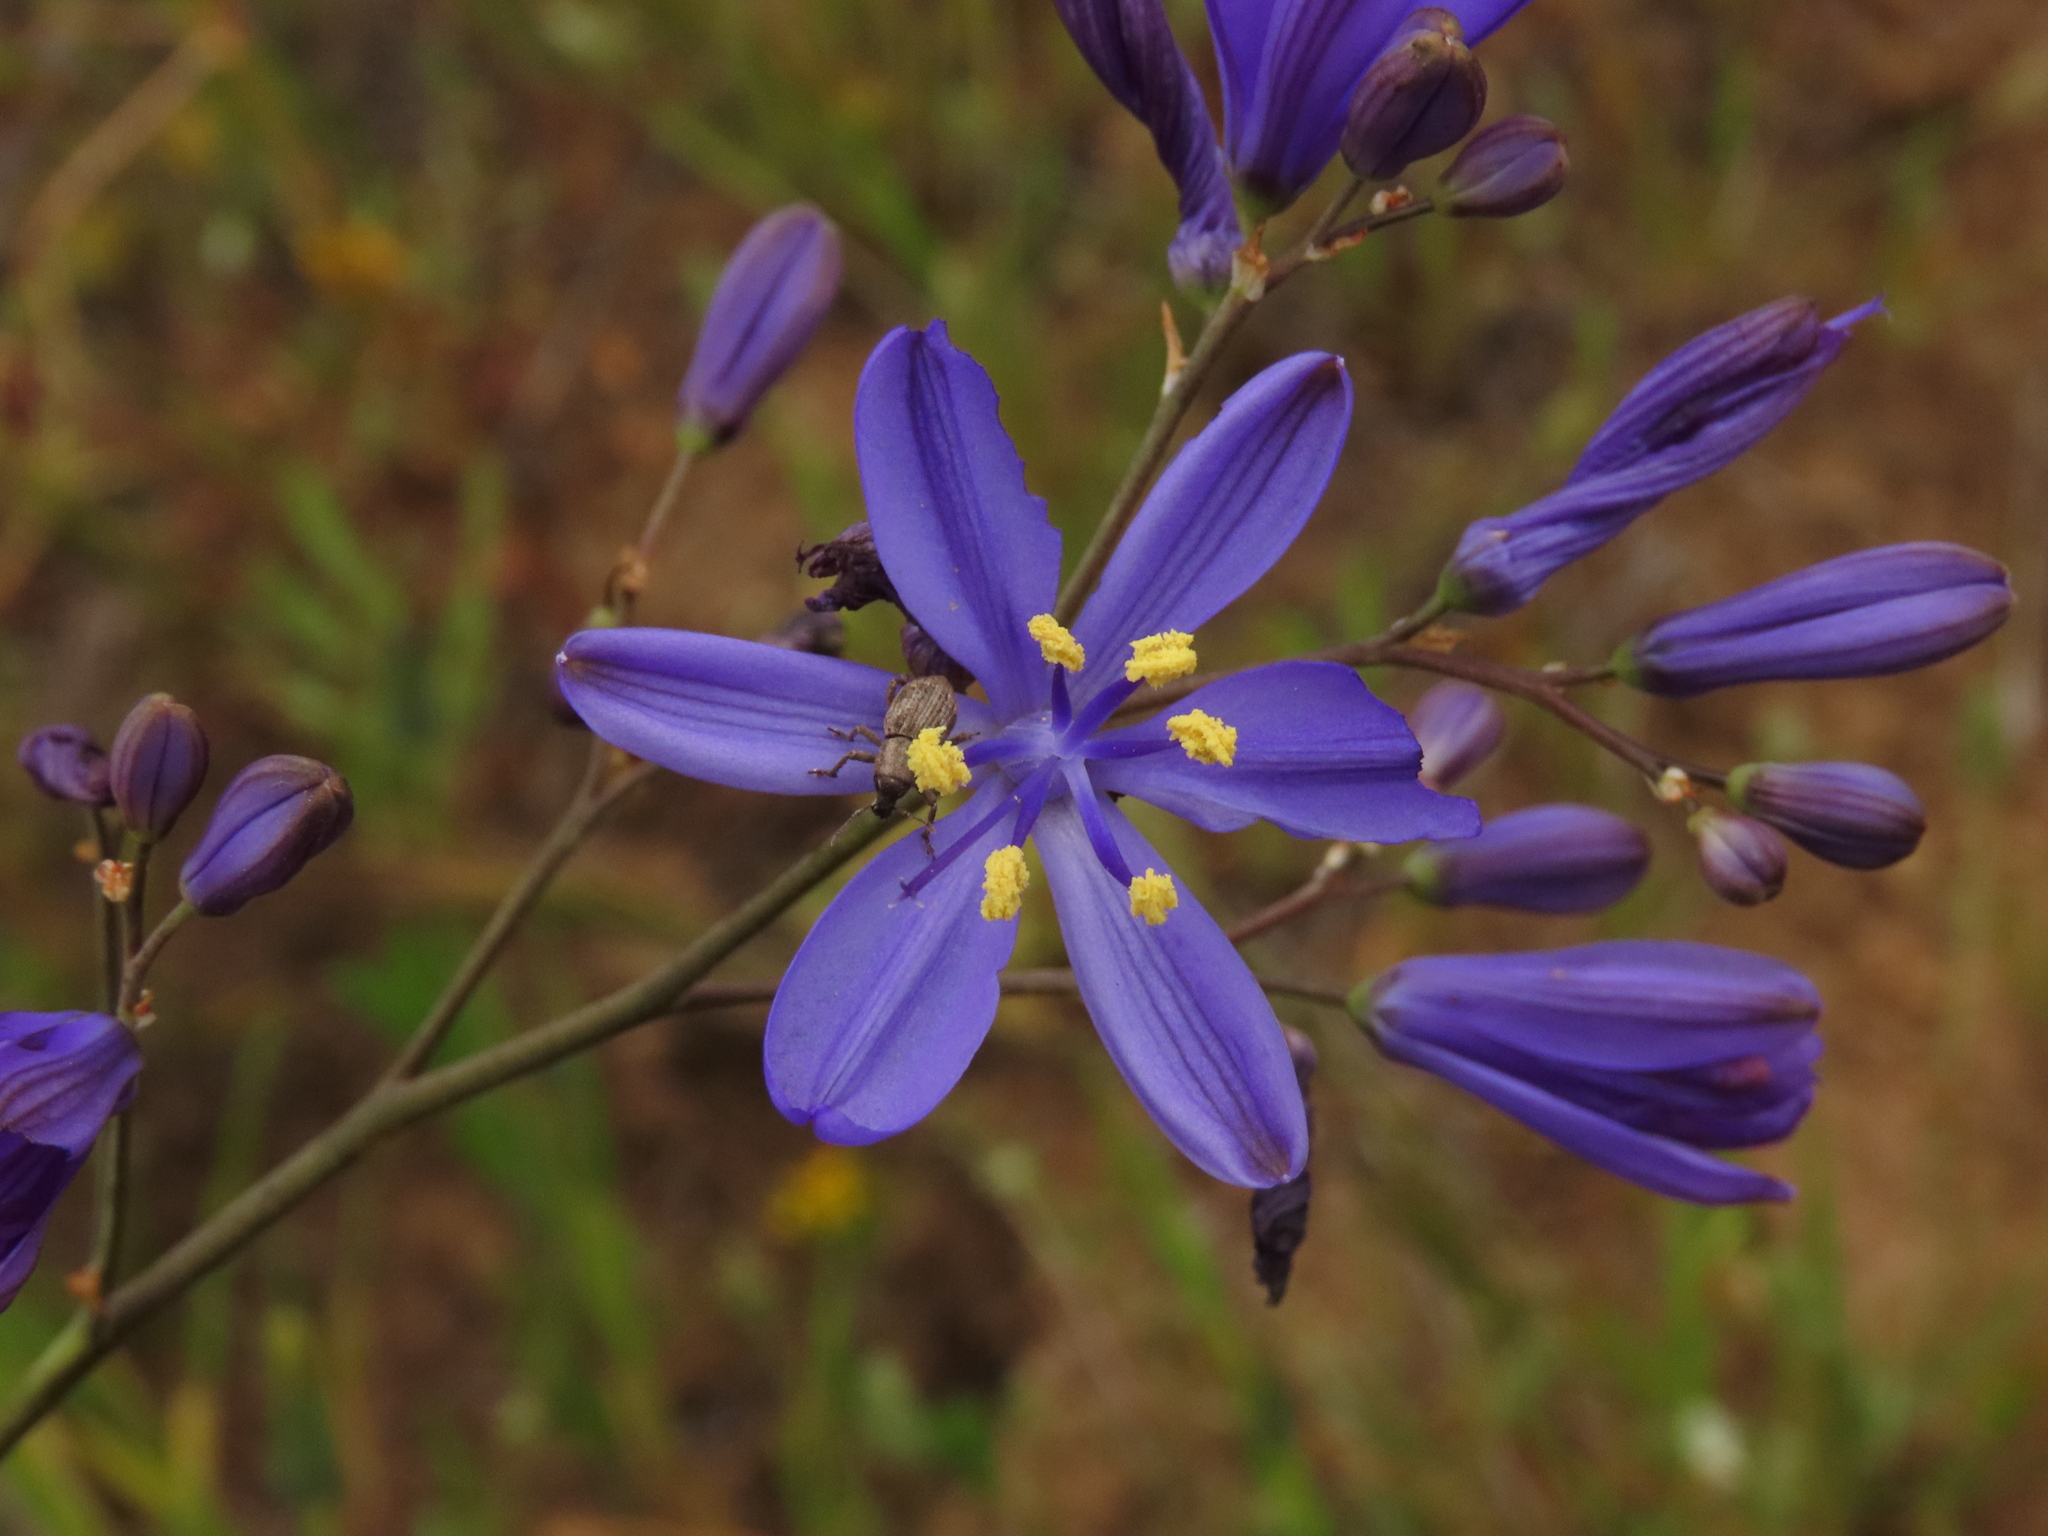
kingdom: Plantae
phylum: Tracheophyta
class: Liliopsida
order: Asparagales
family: Asphodelaceae
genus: Pasithea
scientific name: Pasithea caerulea
